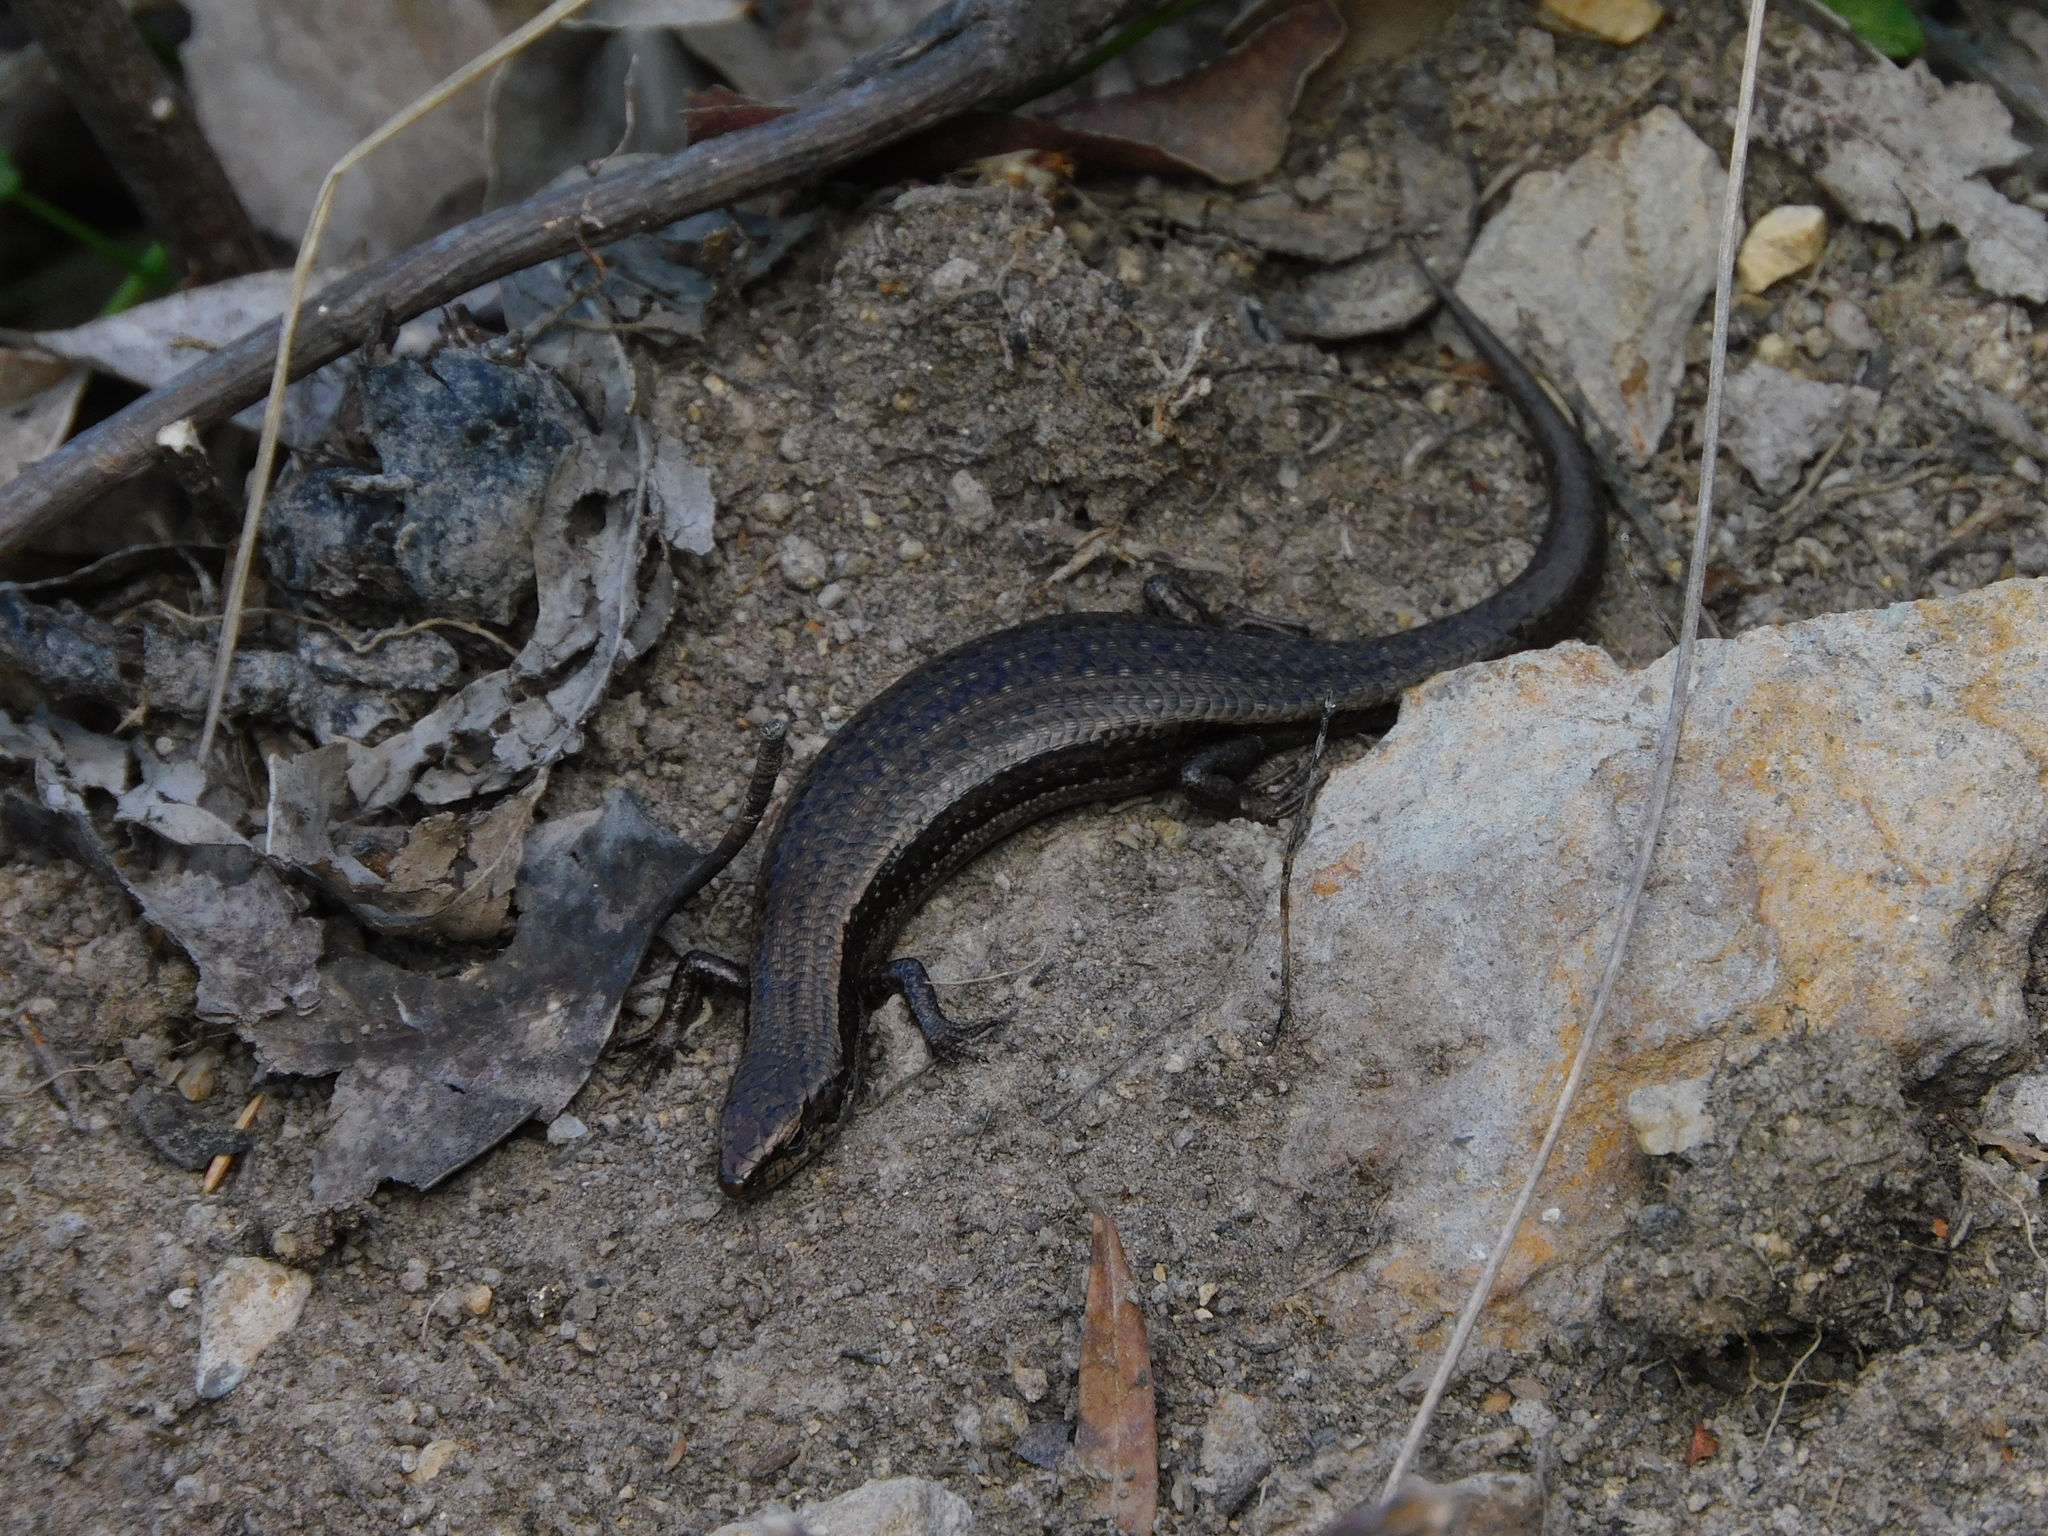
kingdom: Animalia
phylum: Chordata
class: Squamata
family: Scincidae
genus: Carinascincus
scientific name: Carinascincus metallicus
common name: Metallic cool-skink
